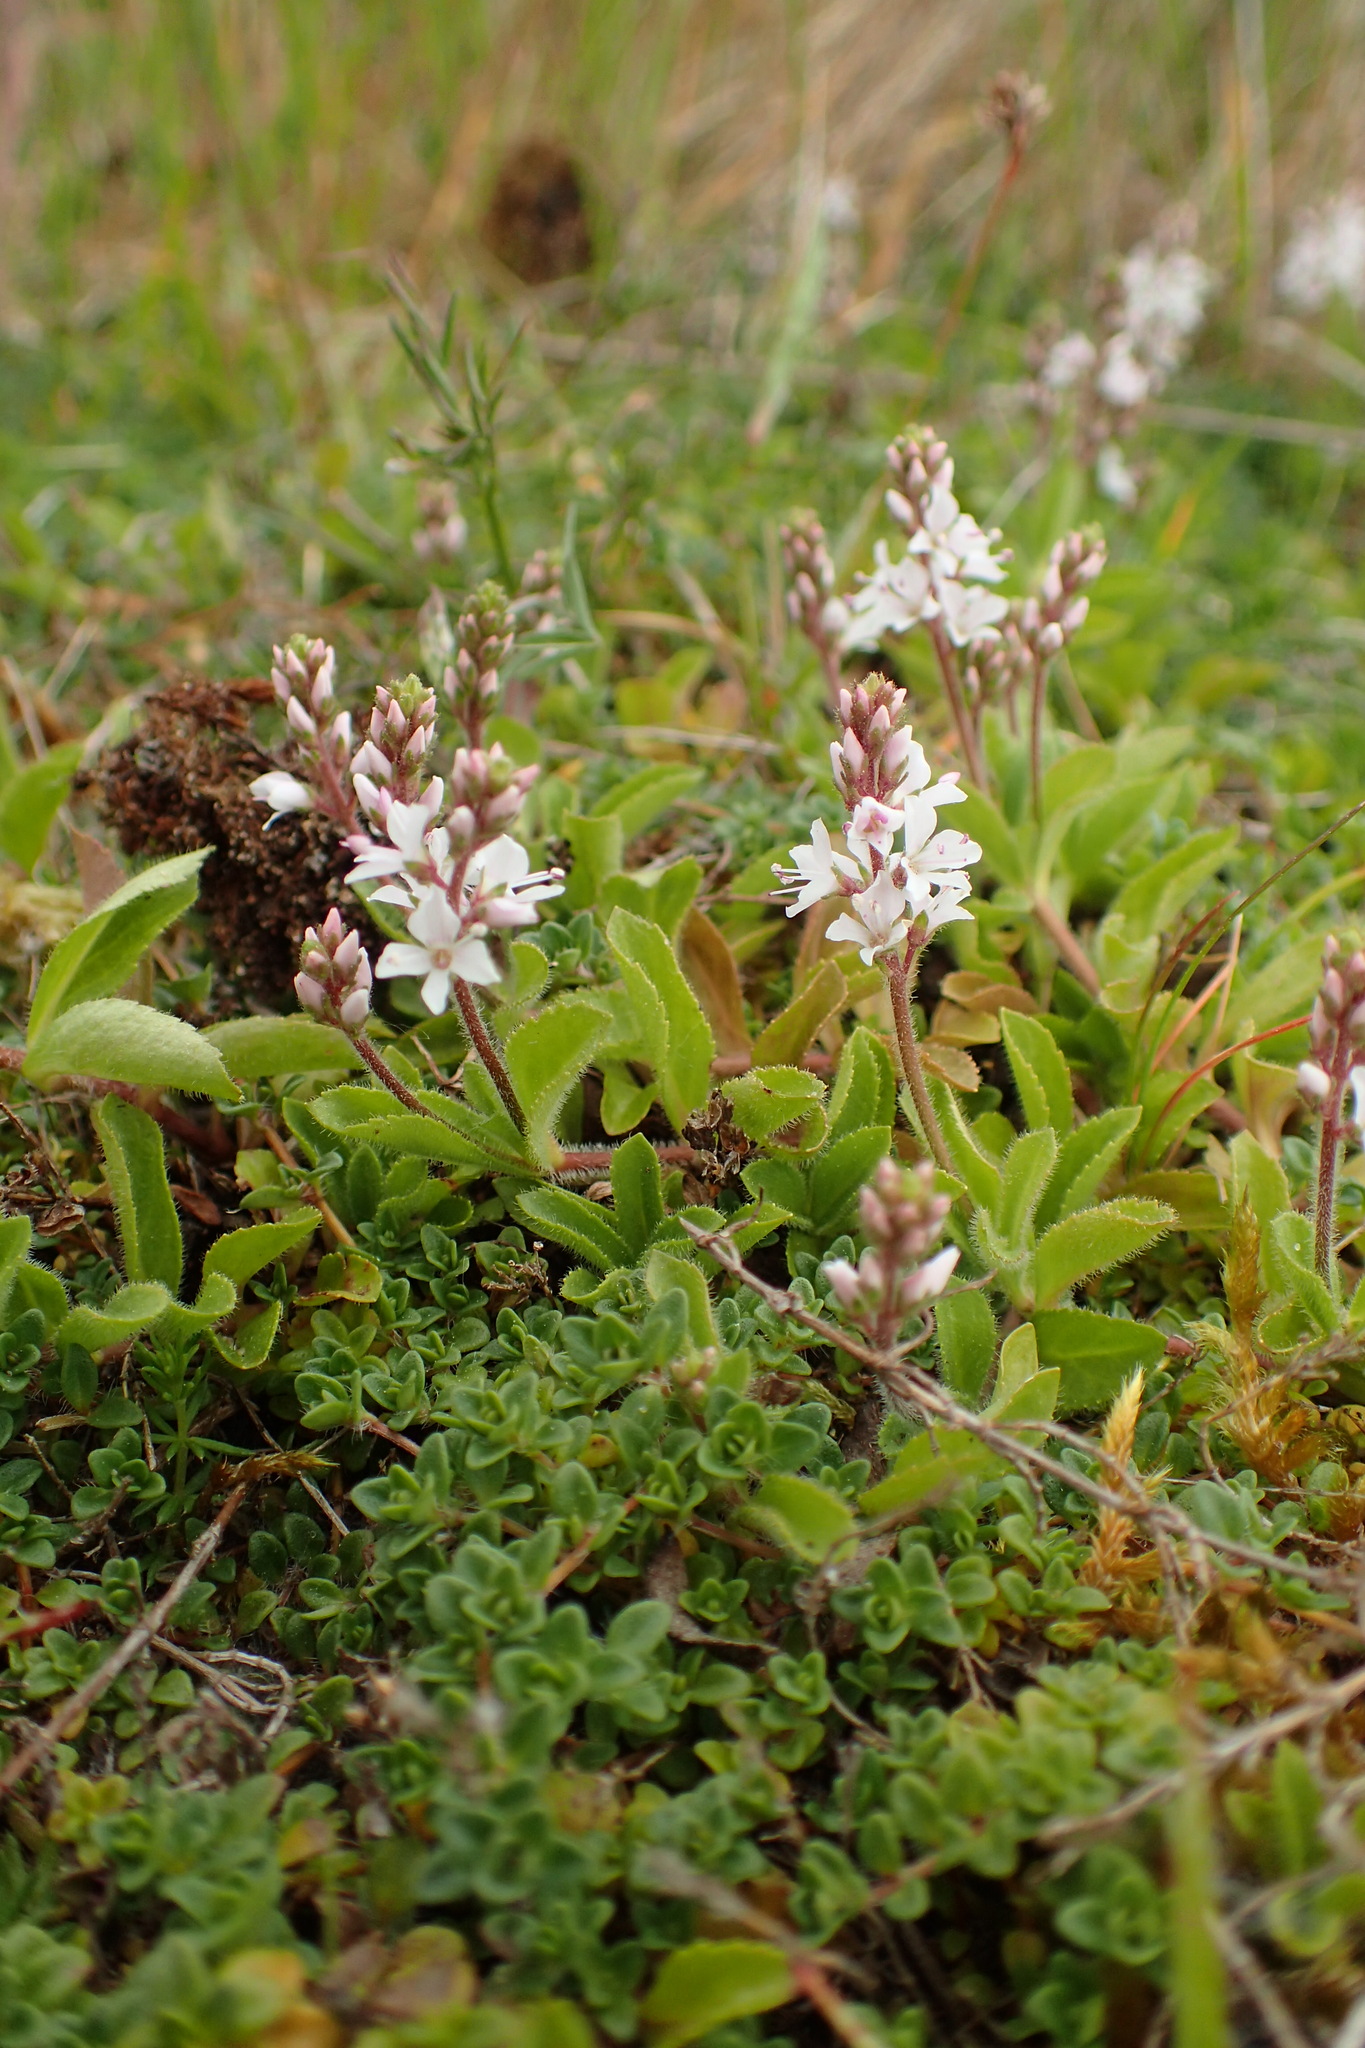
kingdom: Plantae
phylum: Tracheophyta
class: Magnoliopsida
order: Lamiales
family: Plantaginaceae
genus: Veronica
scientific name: Veronica officinalis
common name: Common speedwell
